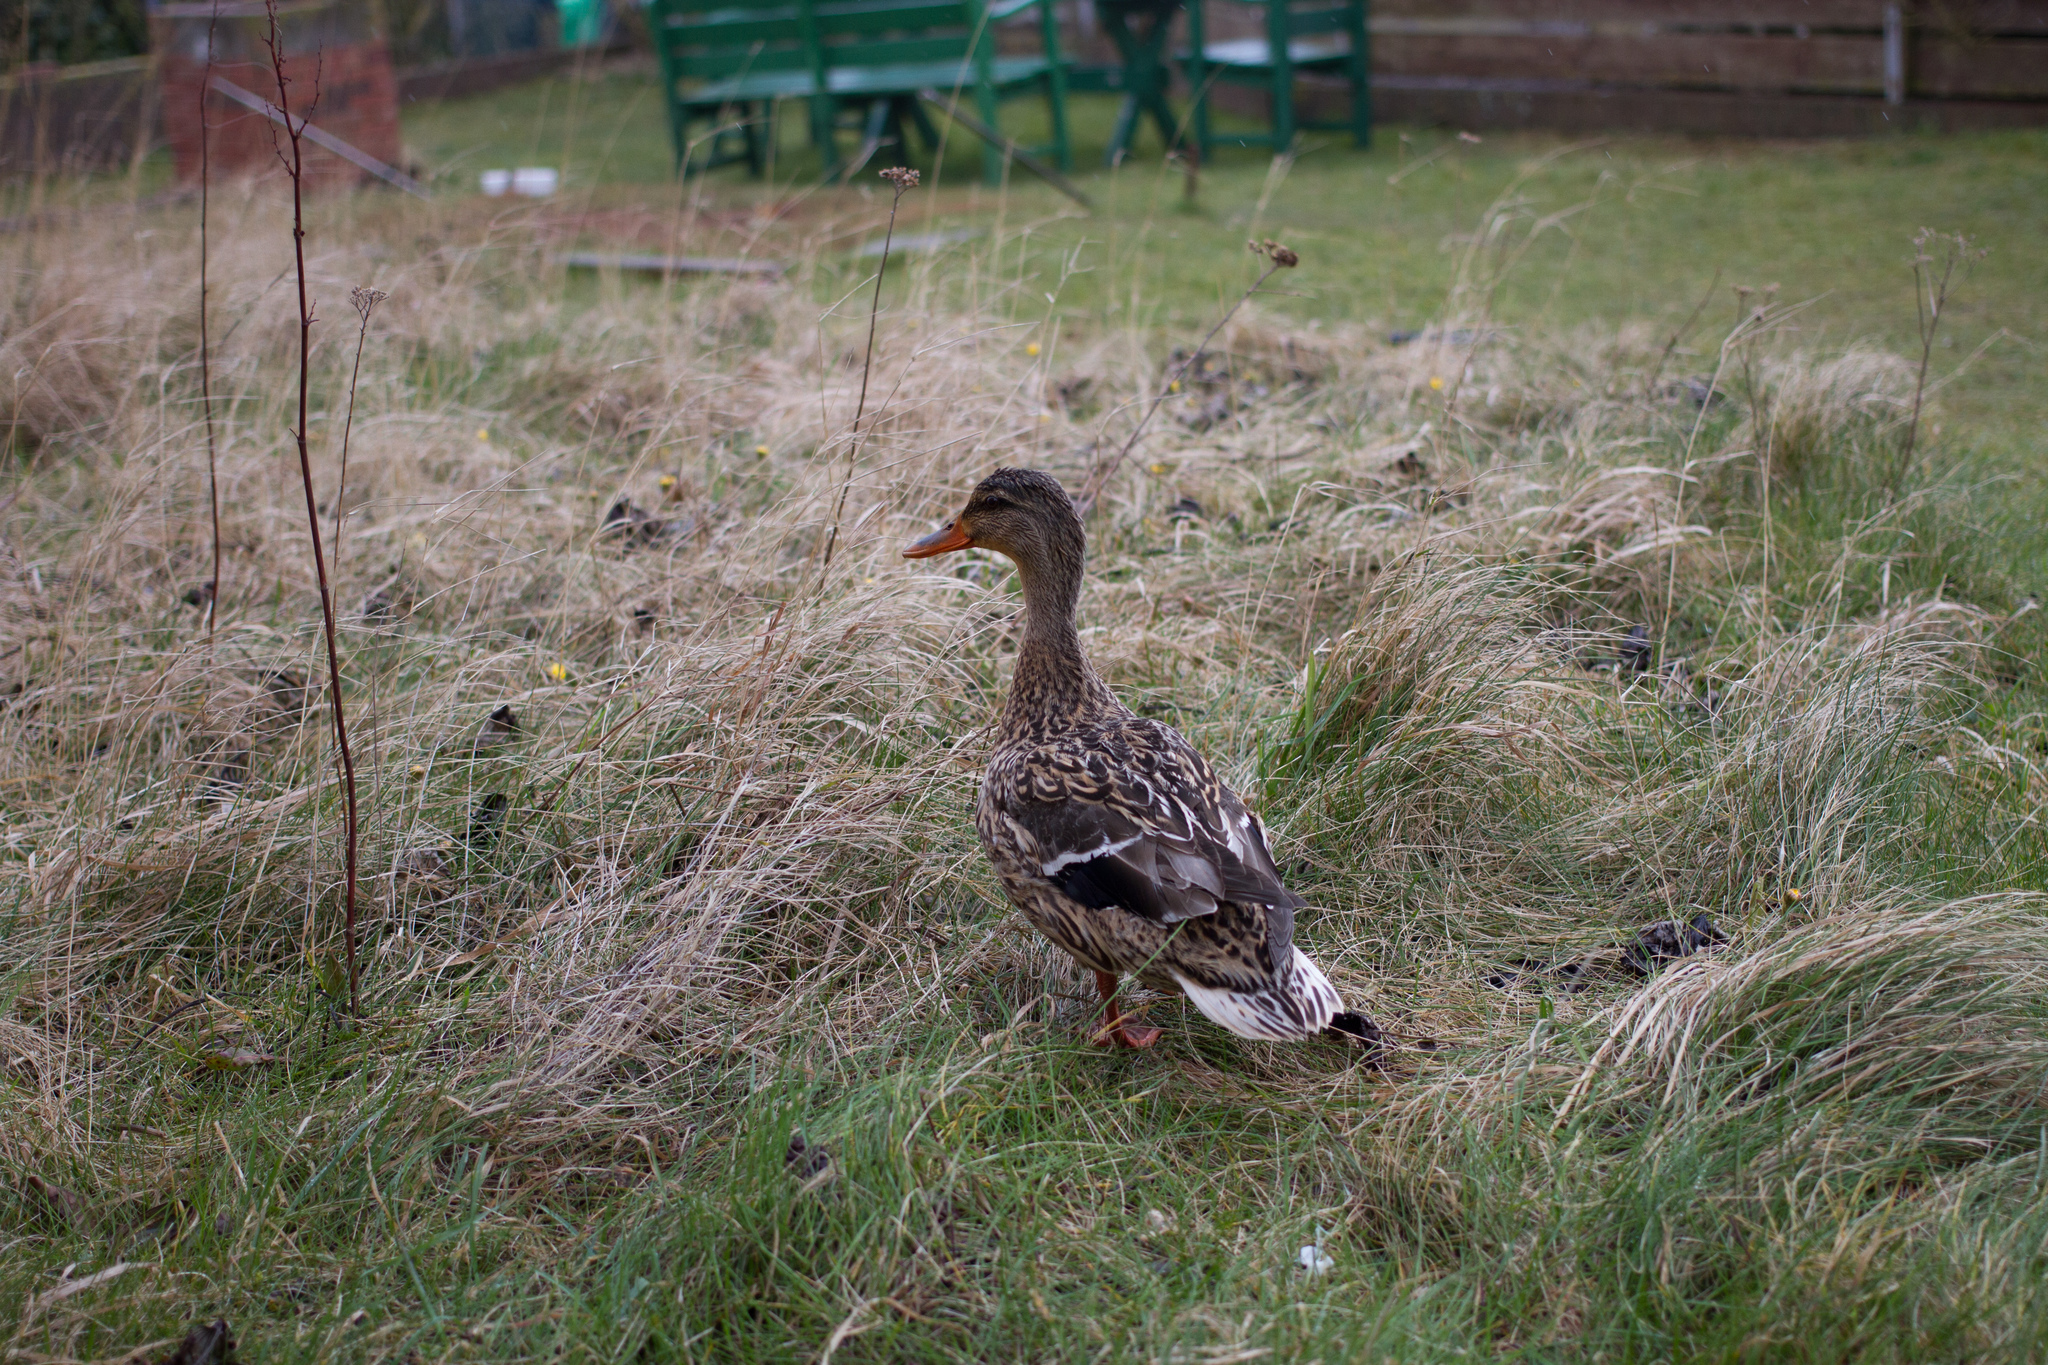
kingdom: Animalia
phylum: Chordata
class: Aves
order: Anseriformes
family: Anatidae
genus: Anas
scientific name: Anas platyrhynchos
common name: Mallard
